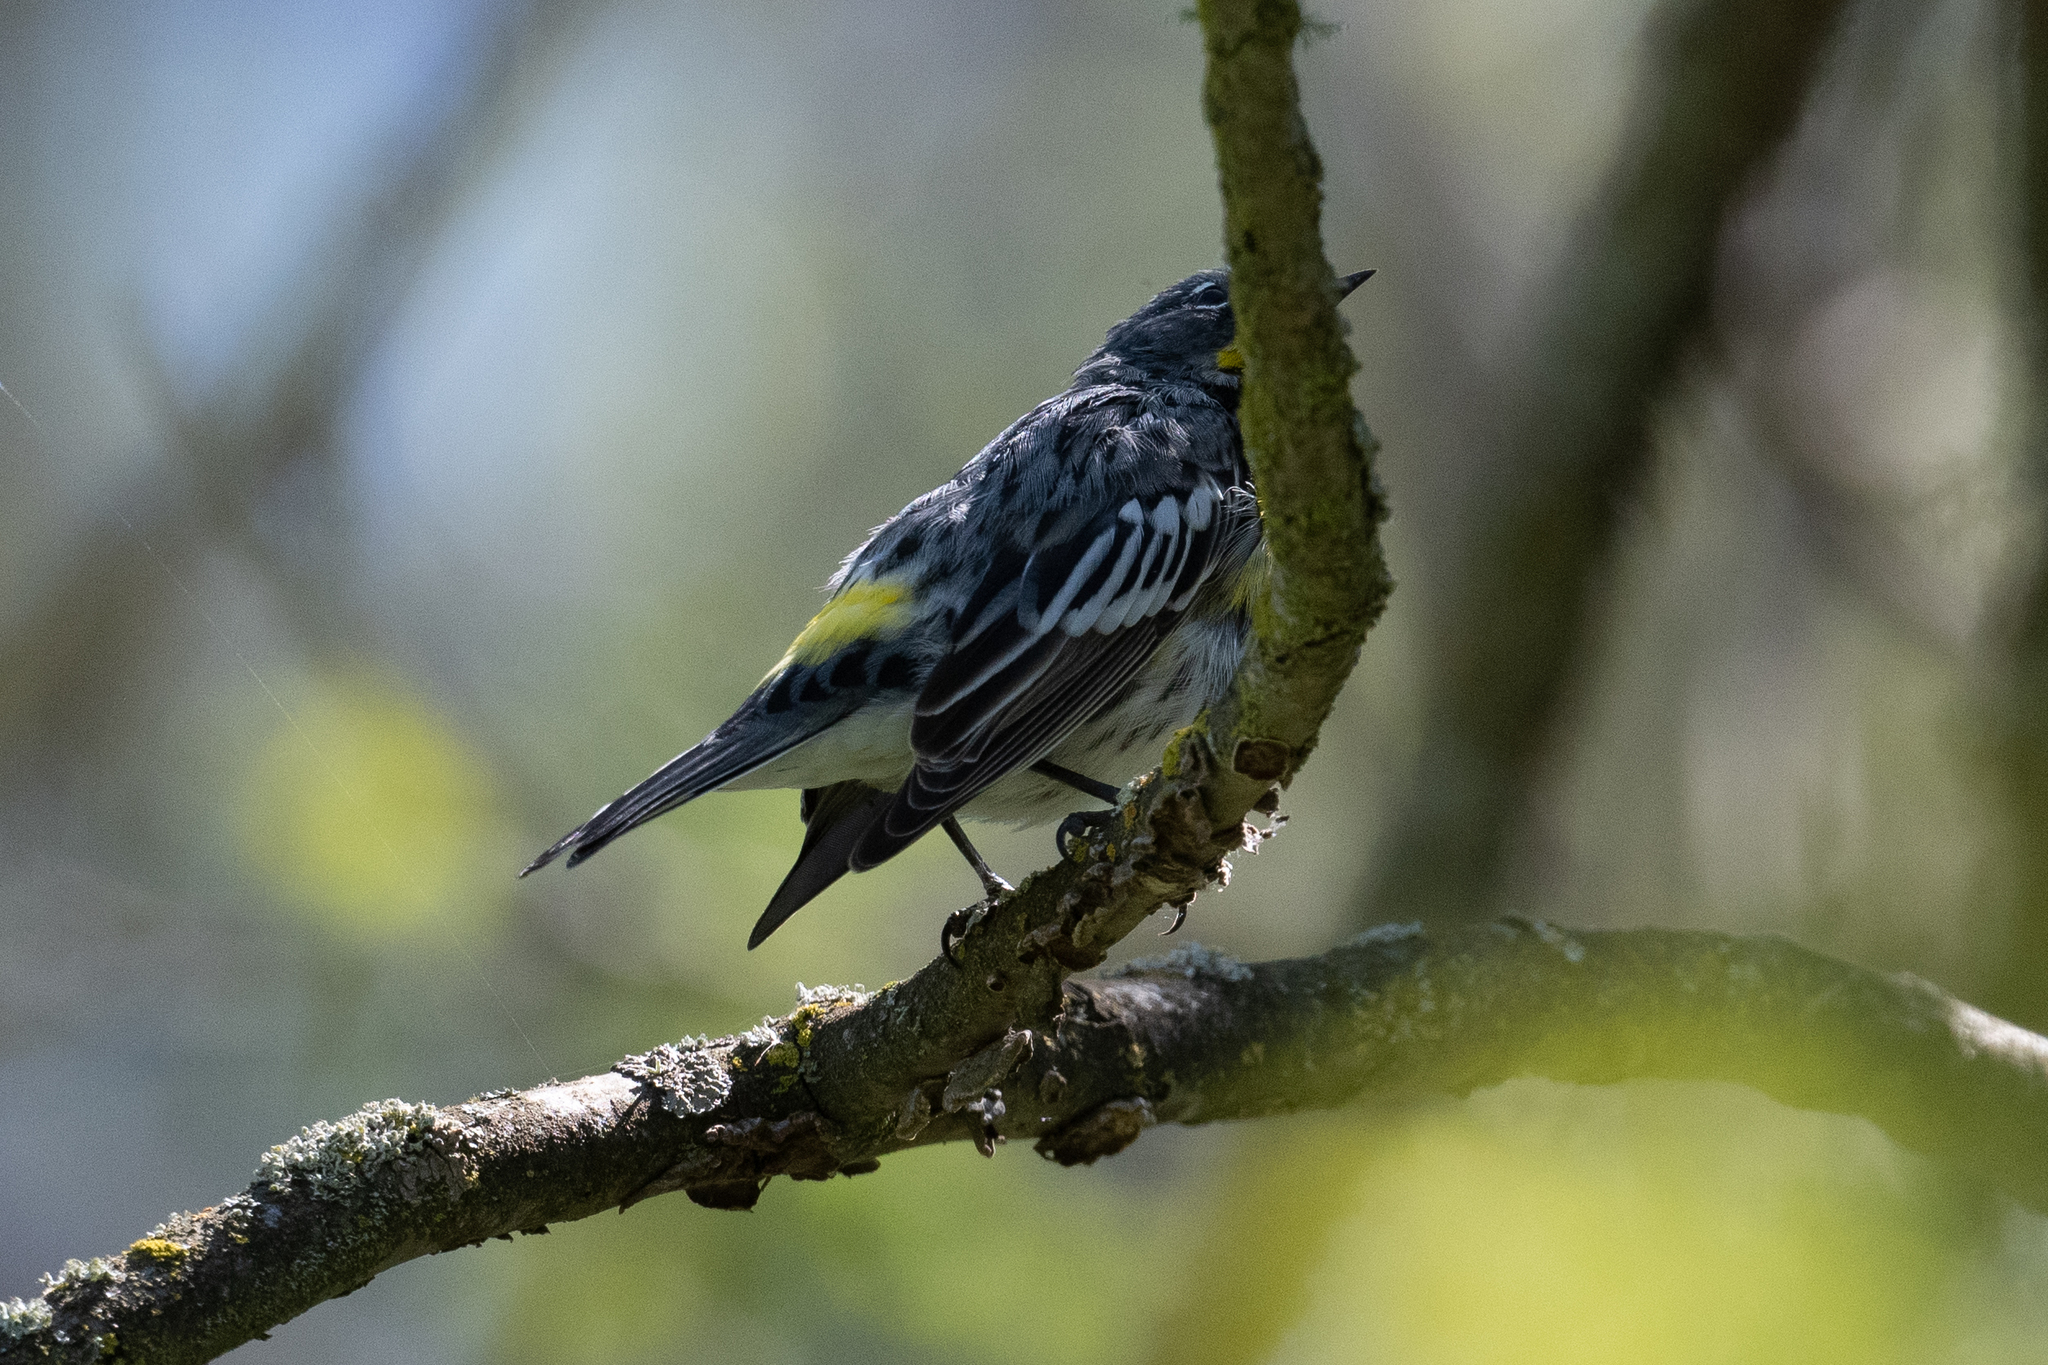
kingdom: Animalia
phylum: Chordata
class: Aves
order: Passeriformes
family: Parulidae
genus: Setophaga
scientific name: Setophaga coronata
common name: Myrtle warbler
